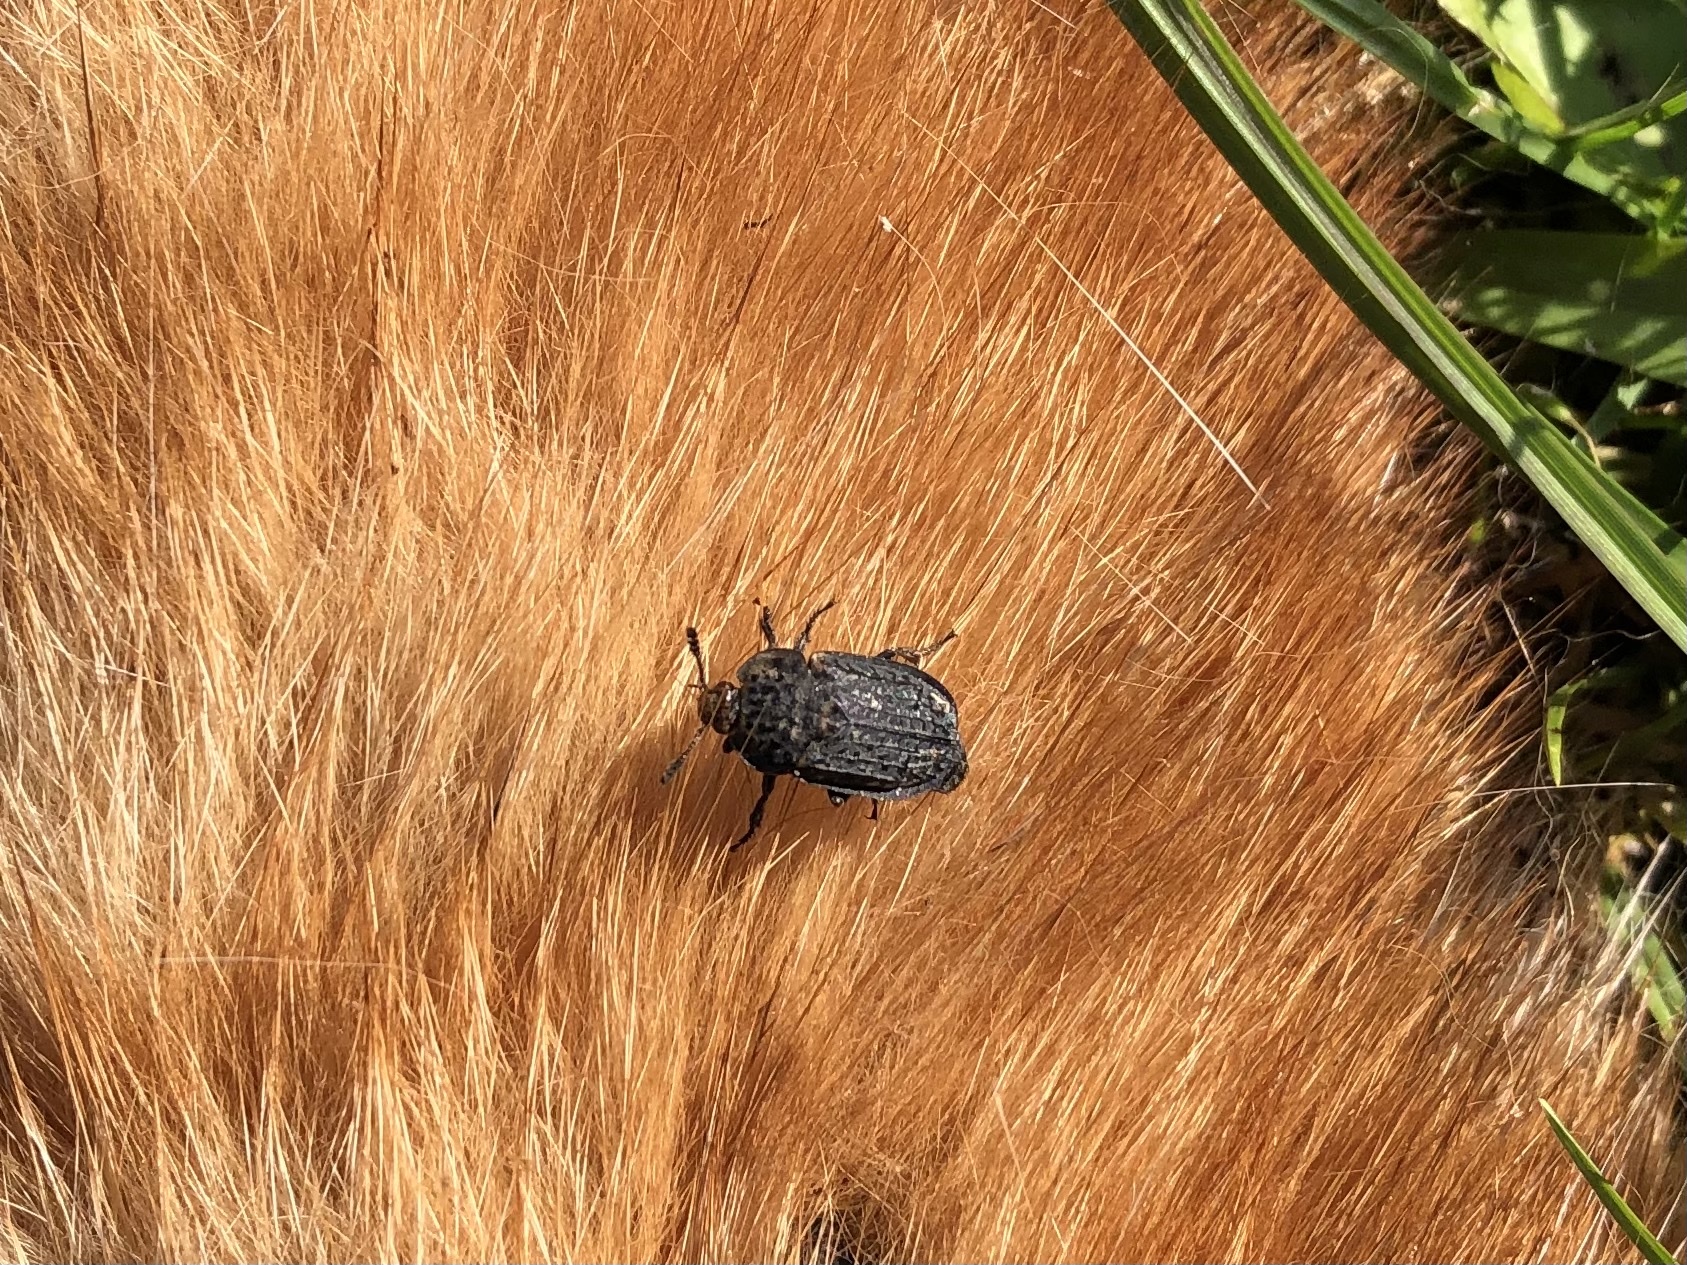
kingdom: Animalia
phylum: Arthropoda
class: Insecta
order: Coleoptera
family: Staphylinidae
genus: Thanatophilus
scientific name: Thanatophilus rugosus
